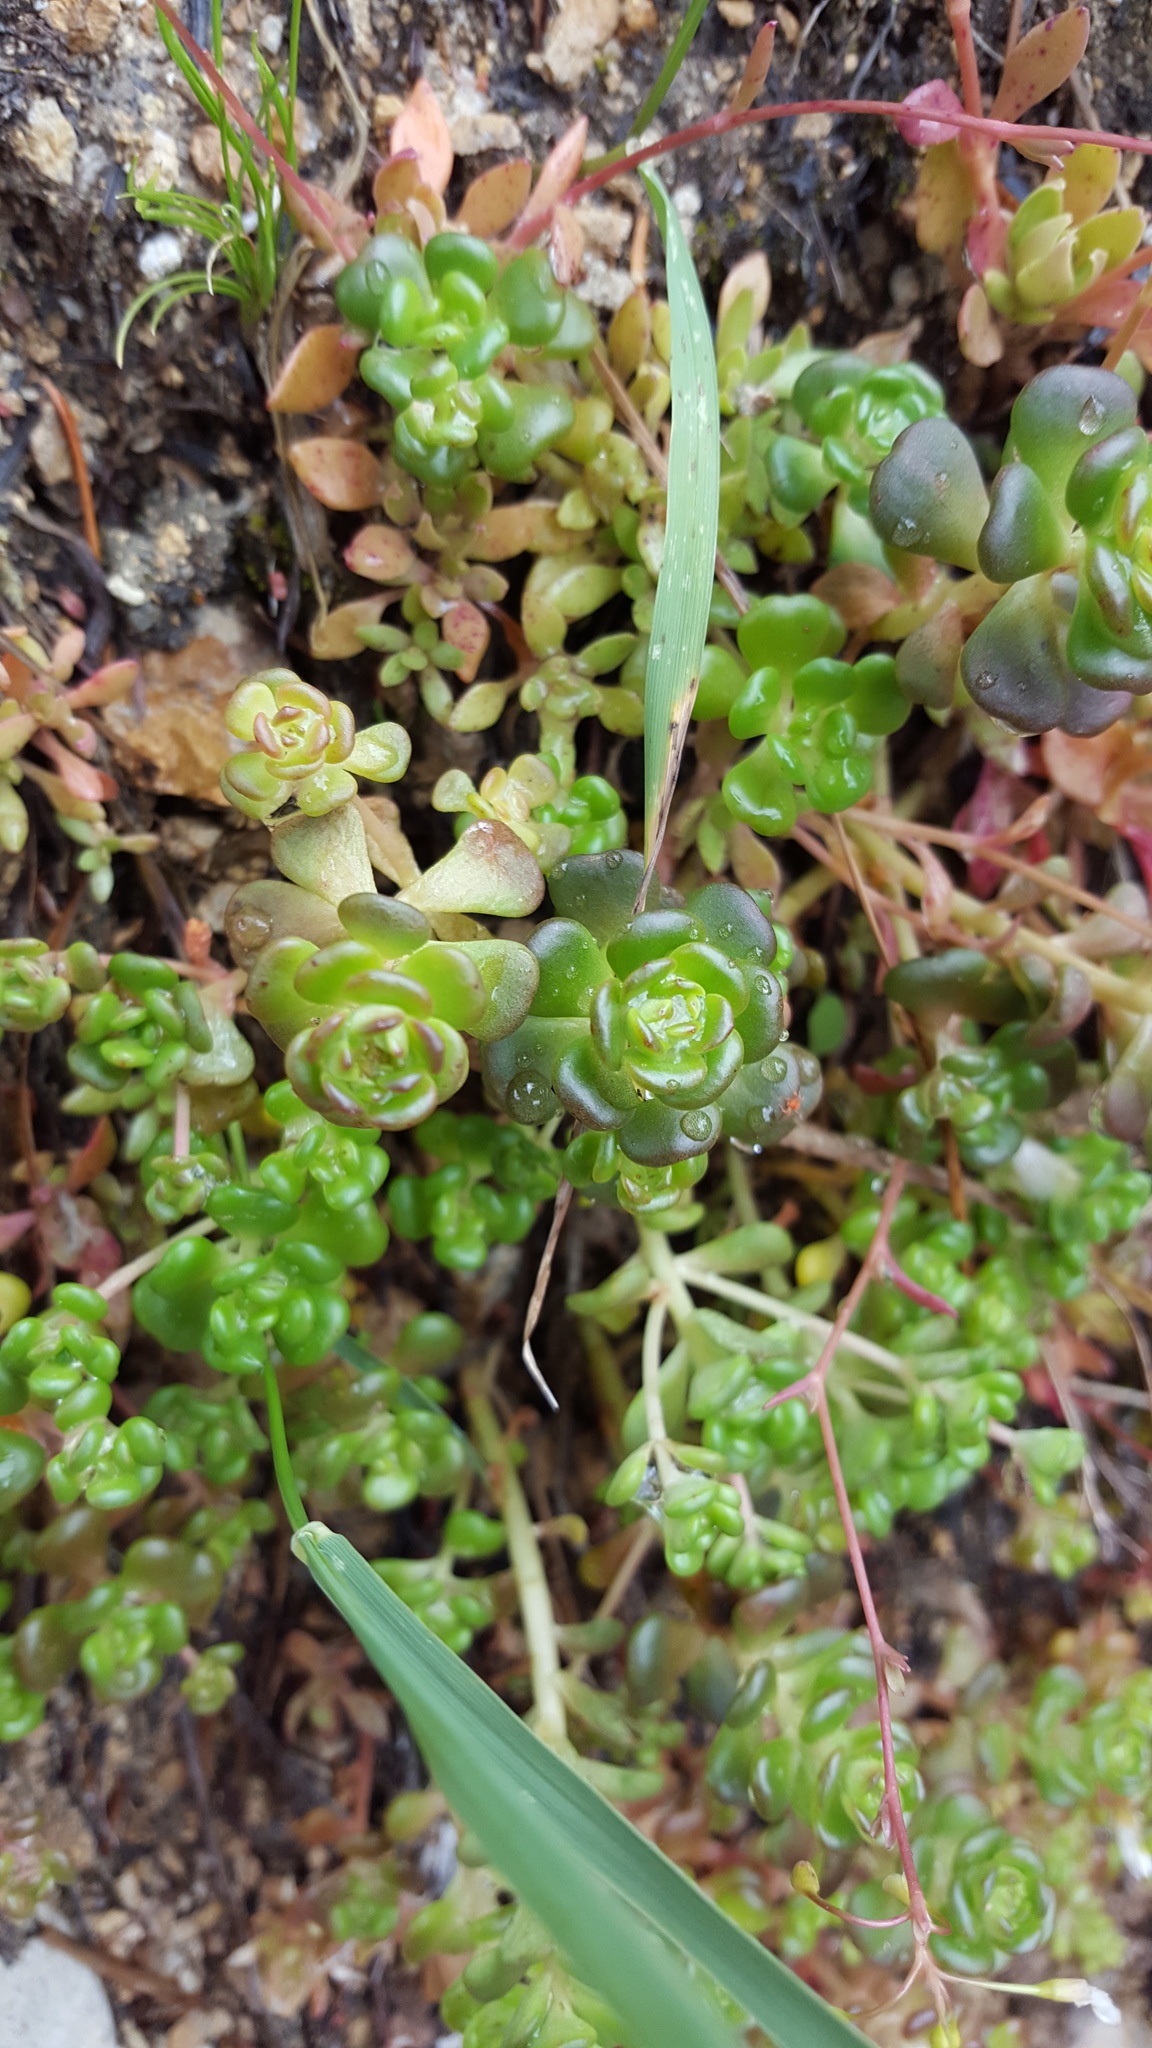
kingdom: Plantae
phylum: Tracheophyta
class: Magnoliopsida
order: Saxifragales
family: Crassulaceae
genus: Sedum
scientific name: Sedum oreganum
